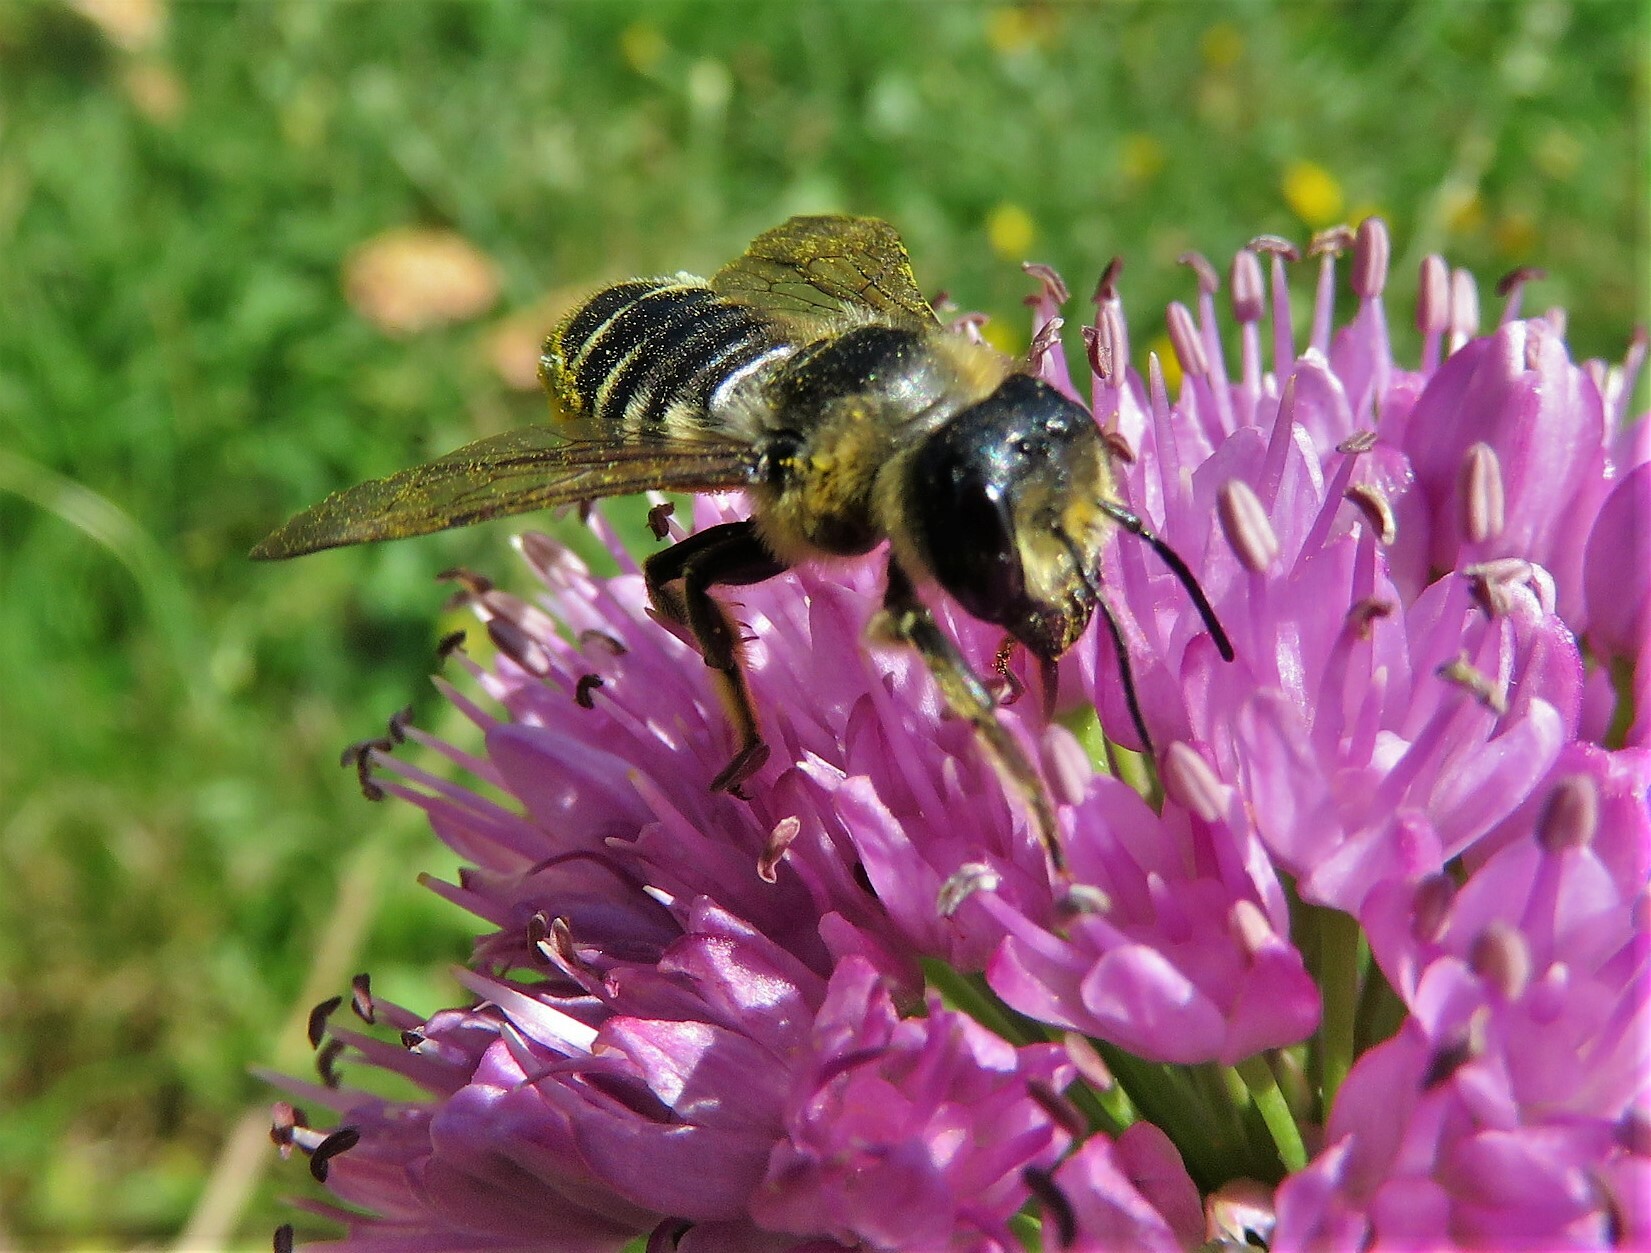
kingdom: Animalia
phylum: Arthropoda
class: Insecta
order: Hymenoptera
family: Megachilidae
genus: Megachile
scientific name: Megachile inermis
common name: Unarmed leafcutter bee
